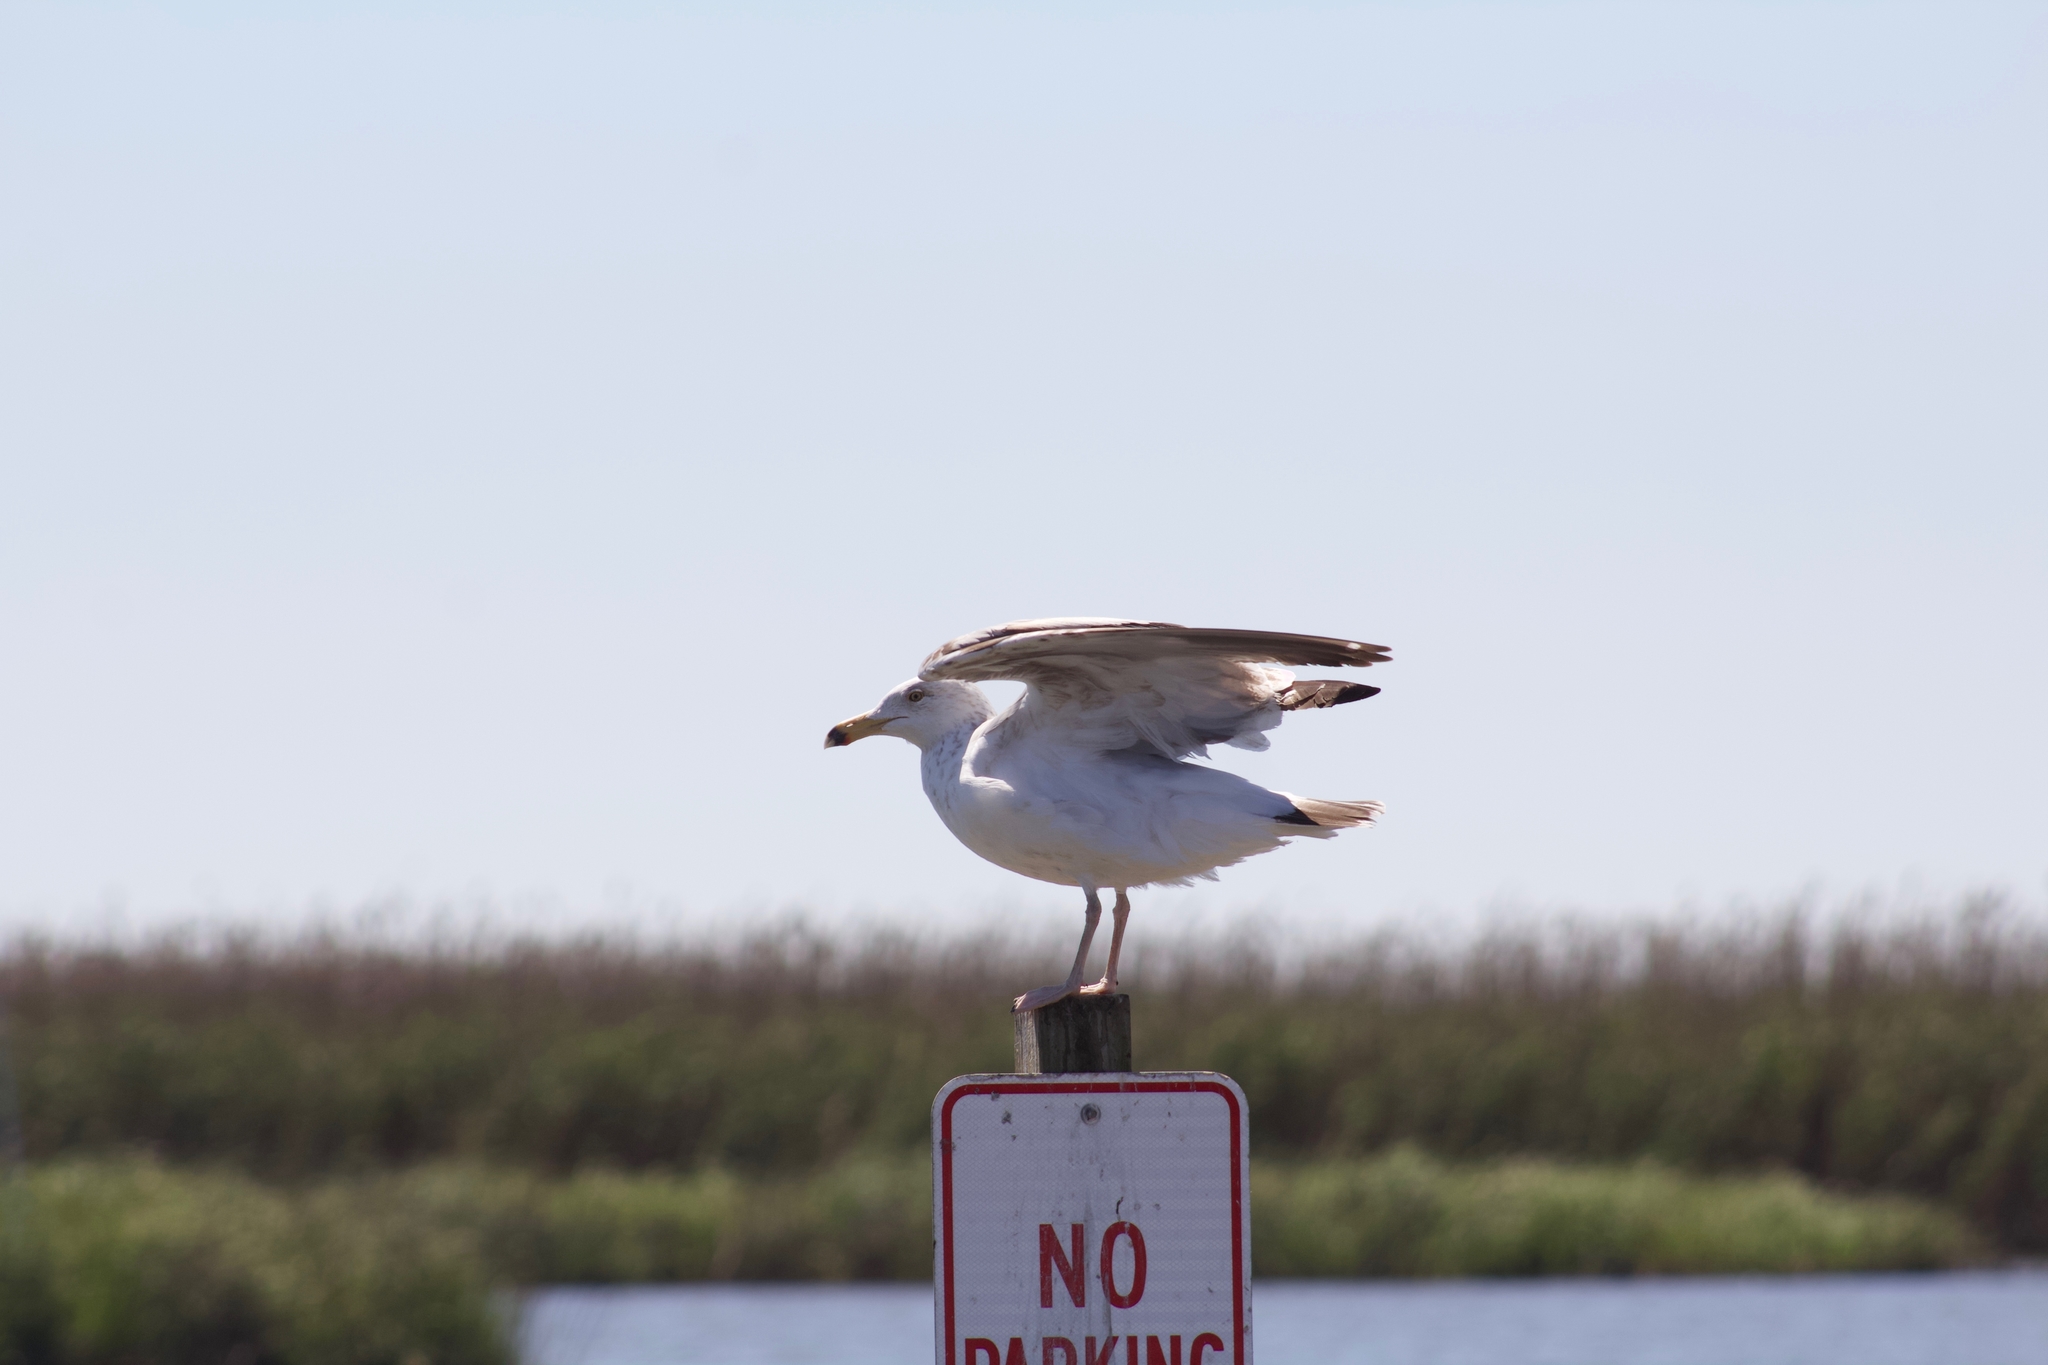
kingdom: Animalia
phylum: Chordata
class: Aves
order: Charadriiformes
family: Laridae
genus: Larus
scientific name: Larus argentatus
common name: Herring gull
